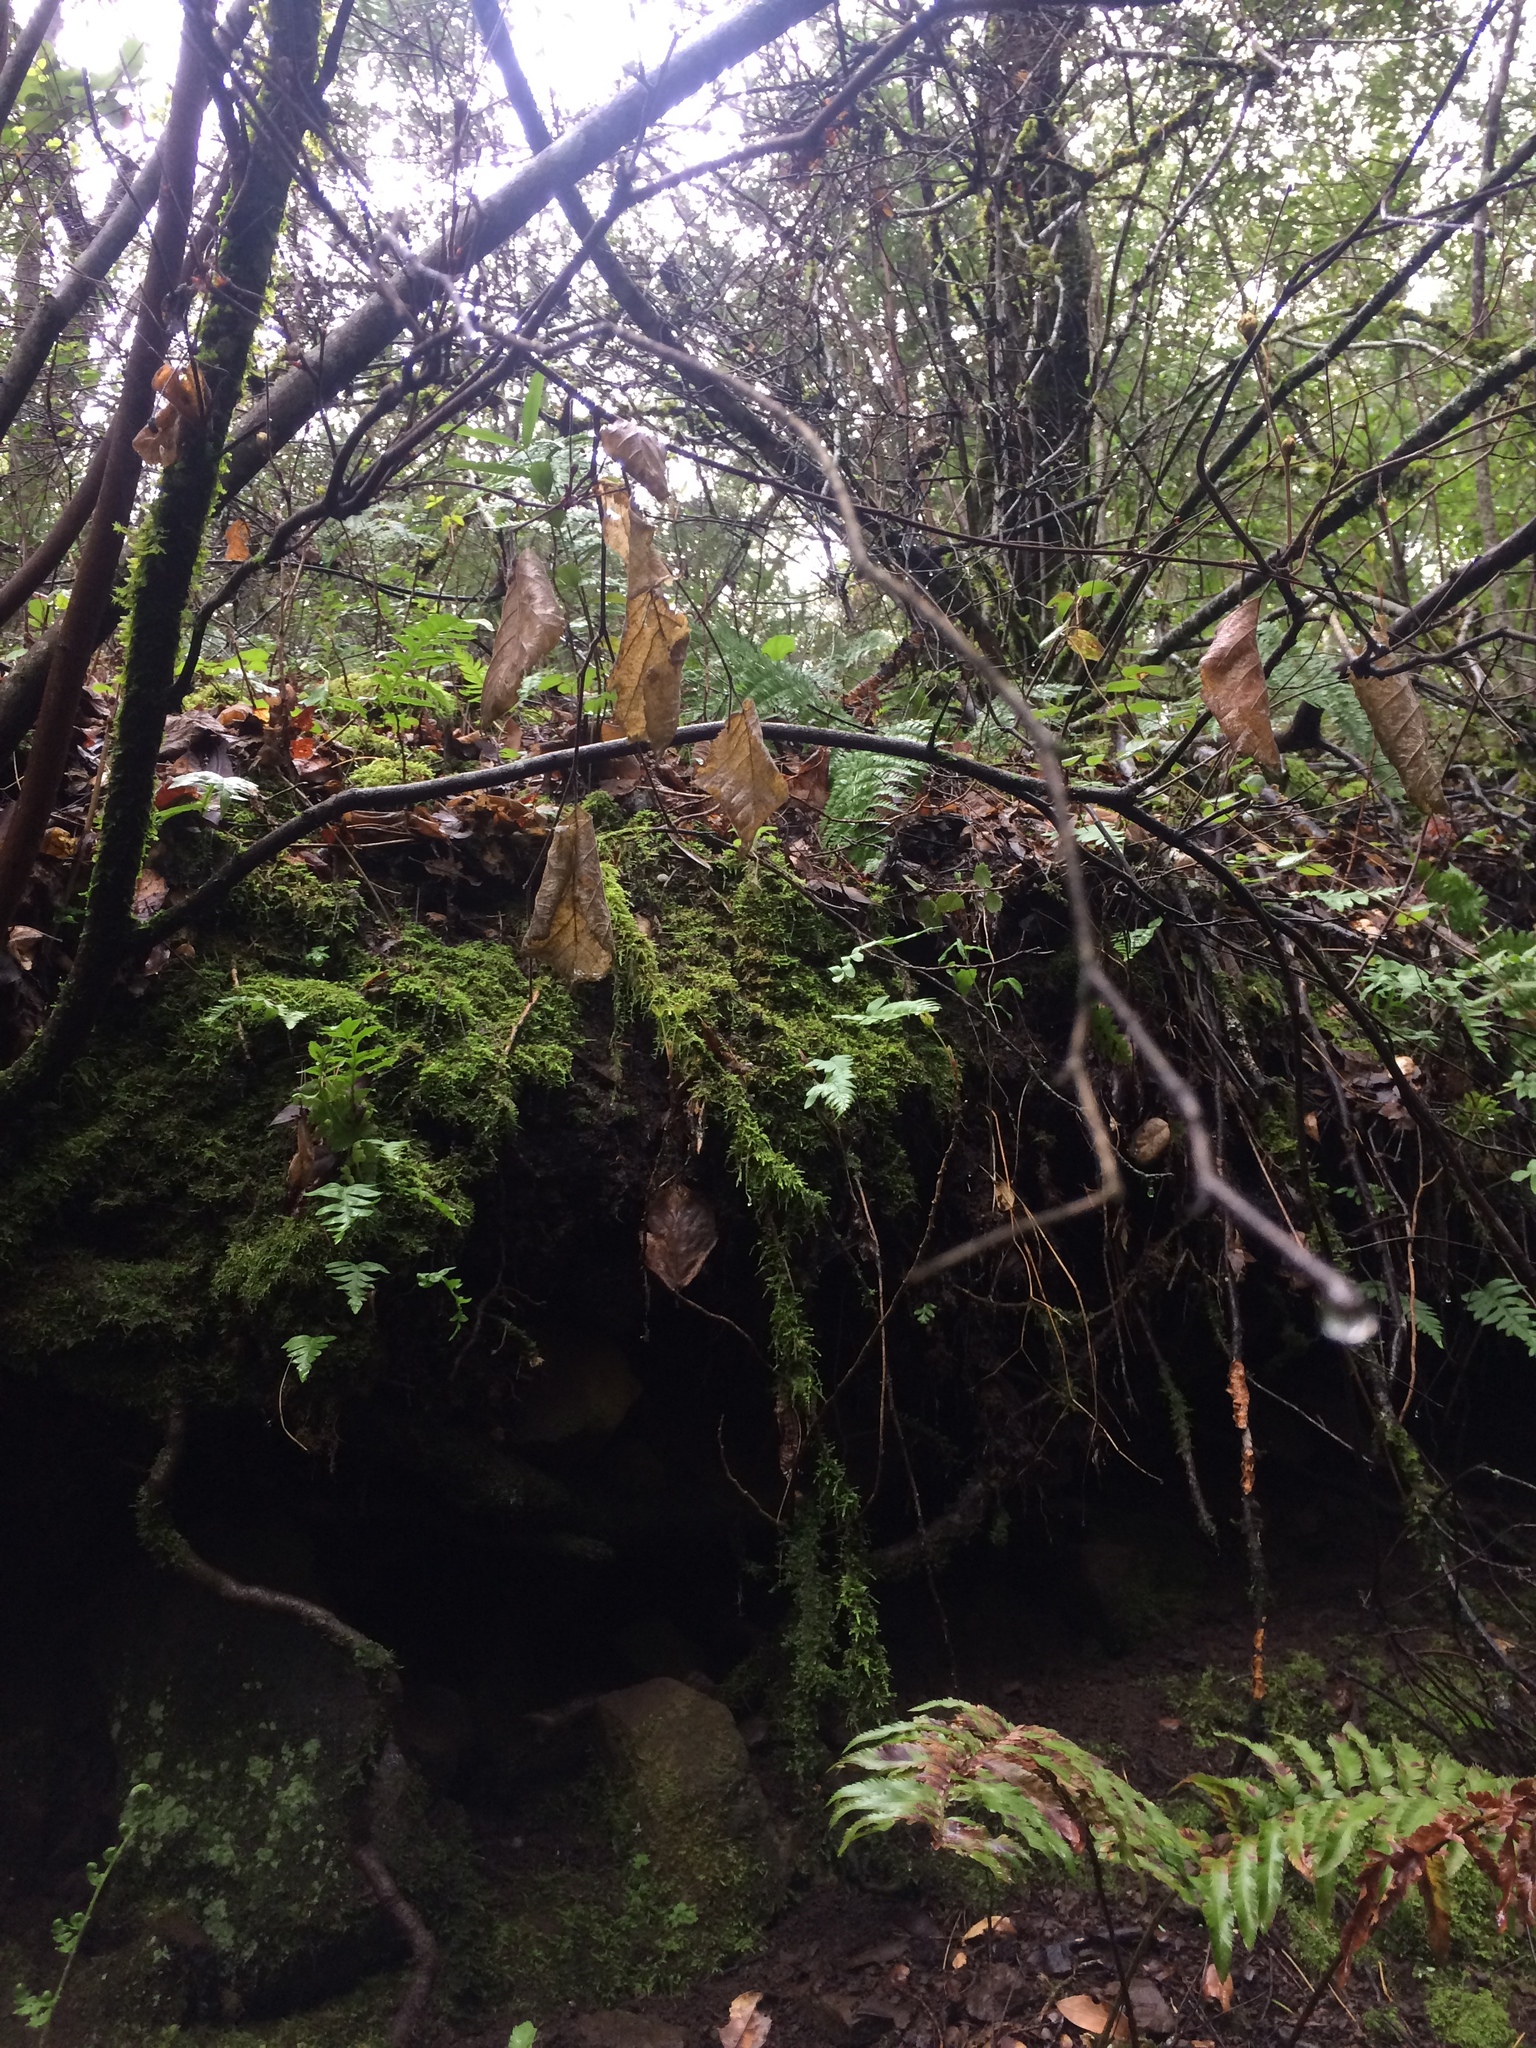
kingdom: Plantae
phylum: Tracheophyta
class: Magnoliopsida
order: Fagales
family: Betulaceae
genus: Corylus
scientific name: Corylus cornuta
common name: Beaked hazel
